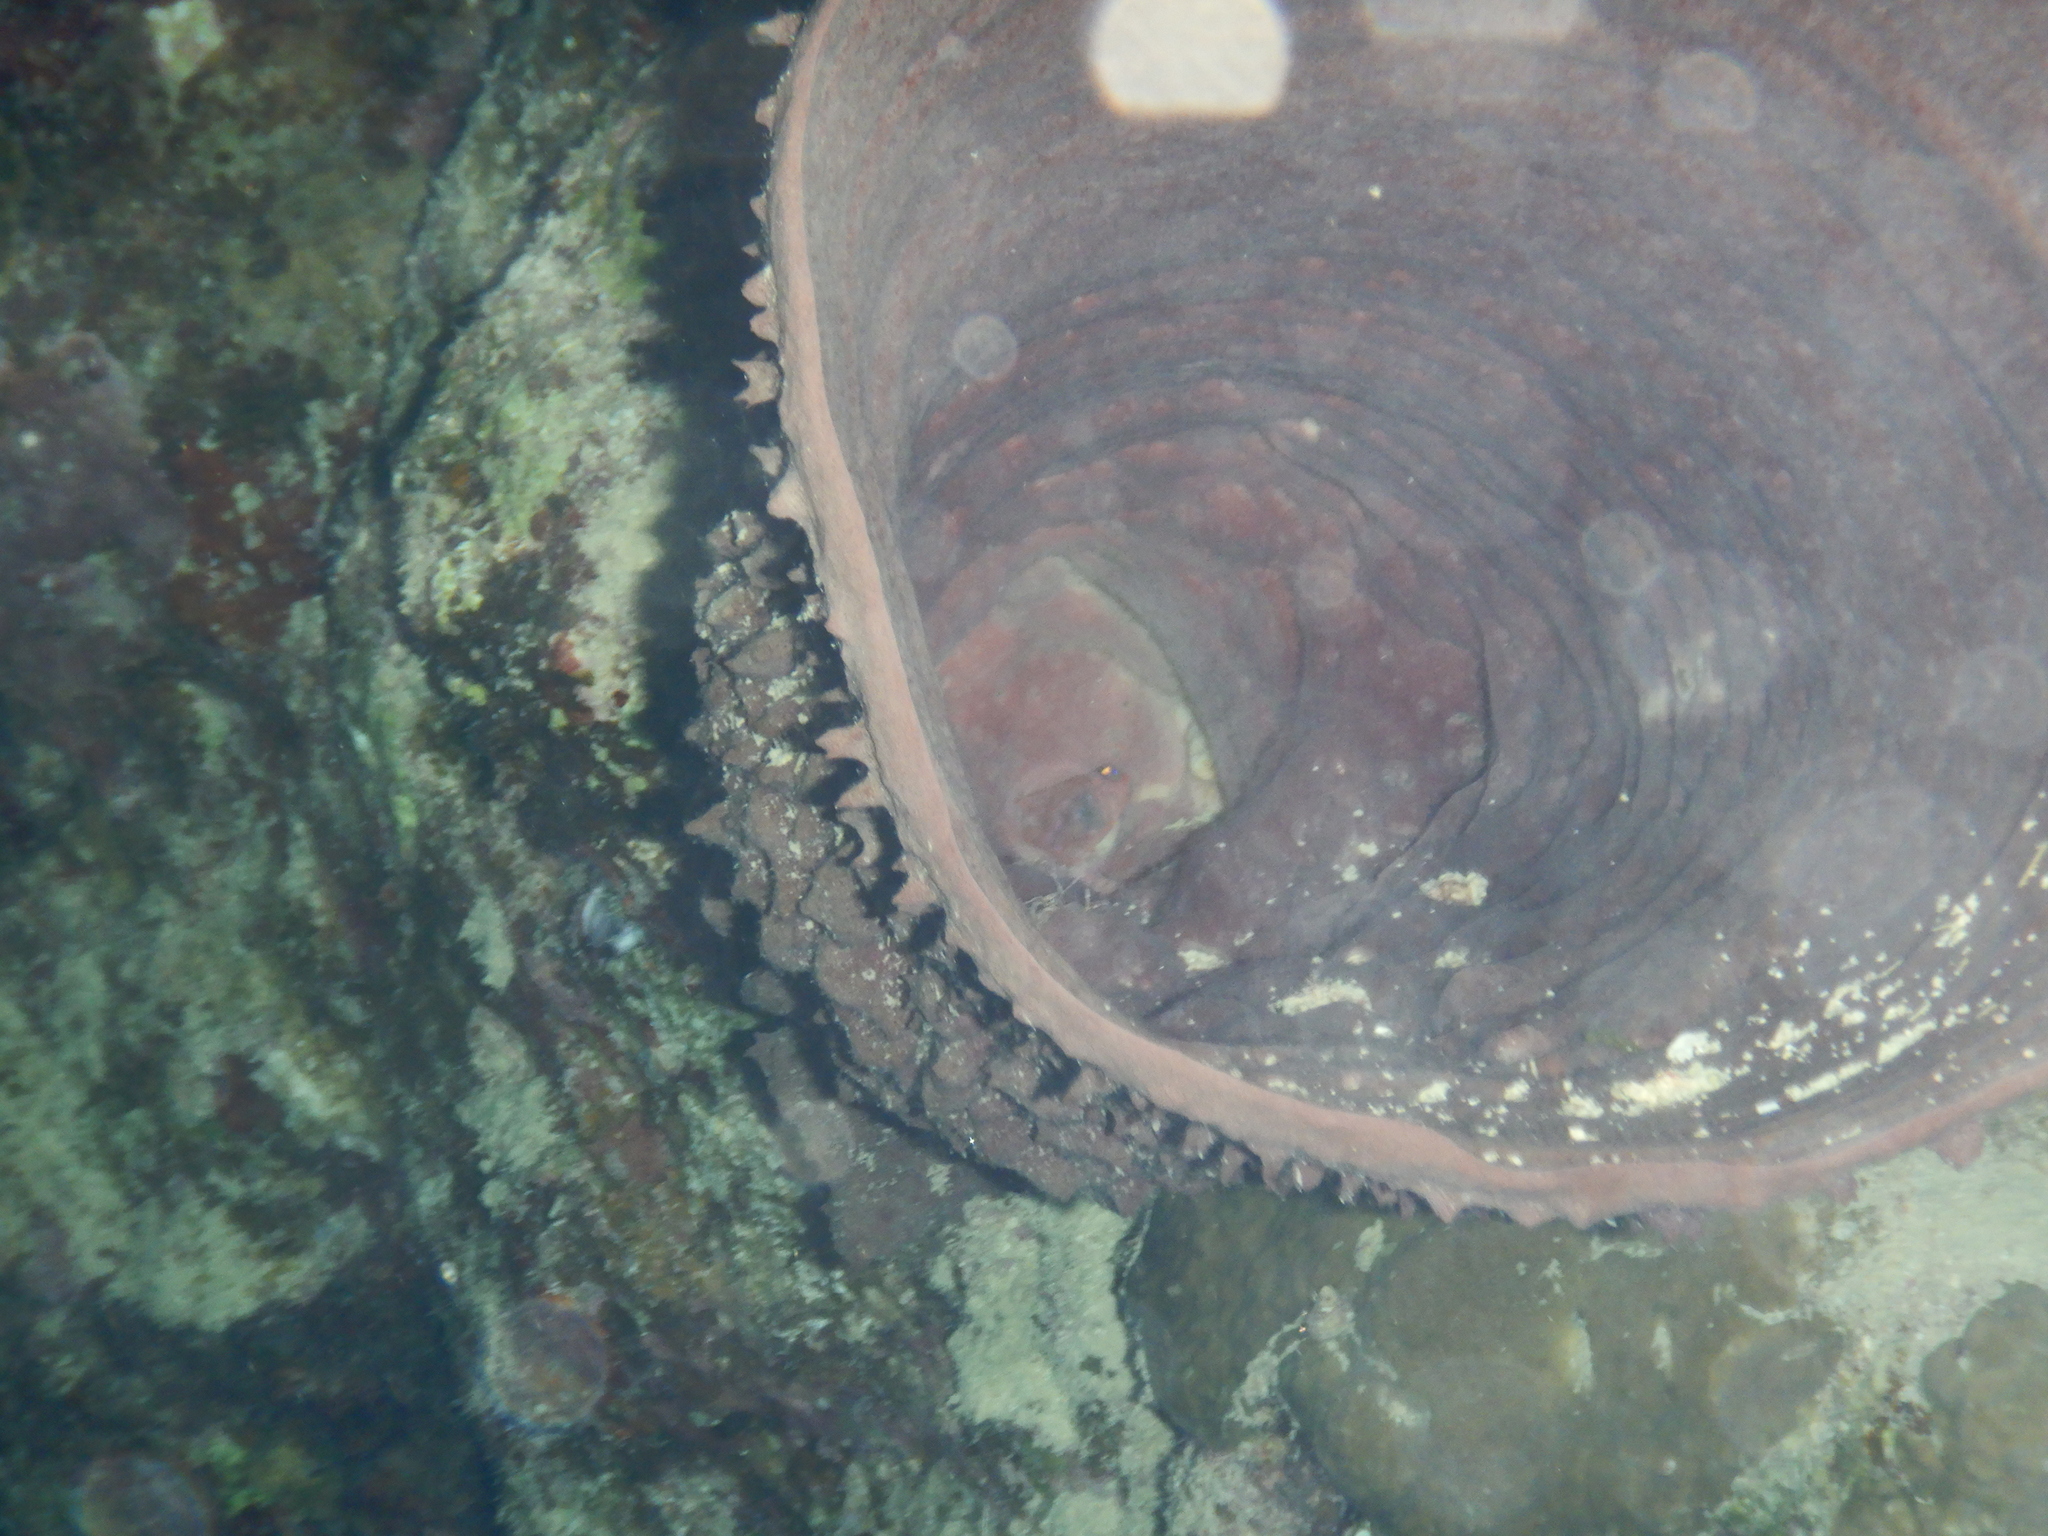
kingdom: Animalia
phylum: Porifera
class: Demospongiae
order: Haplosclerida
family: Callyspongiidae
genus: Callyspongia
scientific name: Callyspongia crassa
